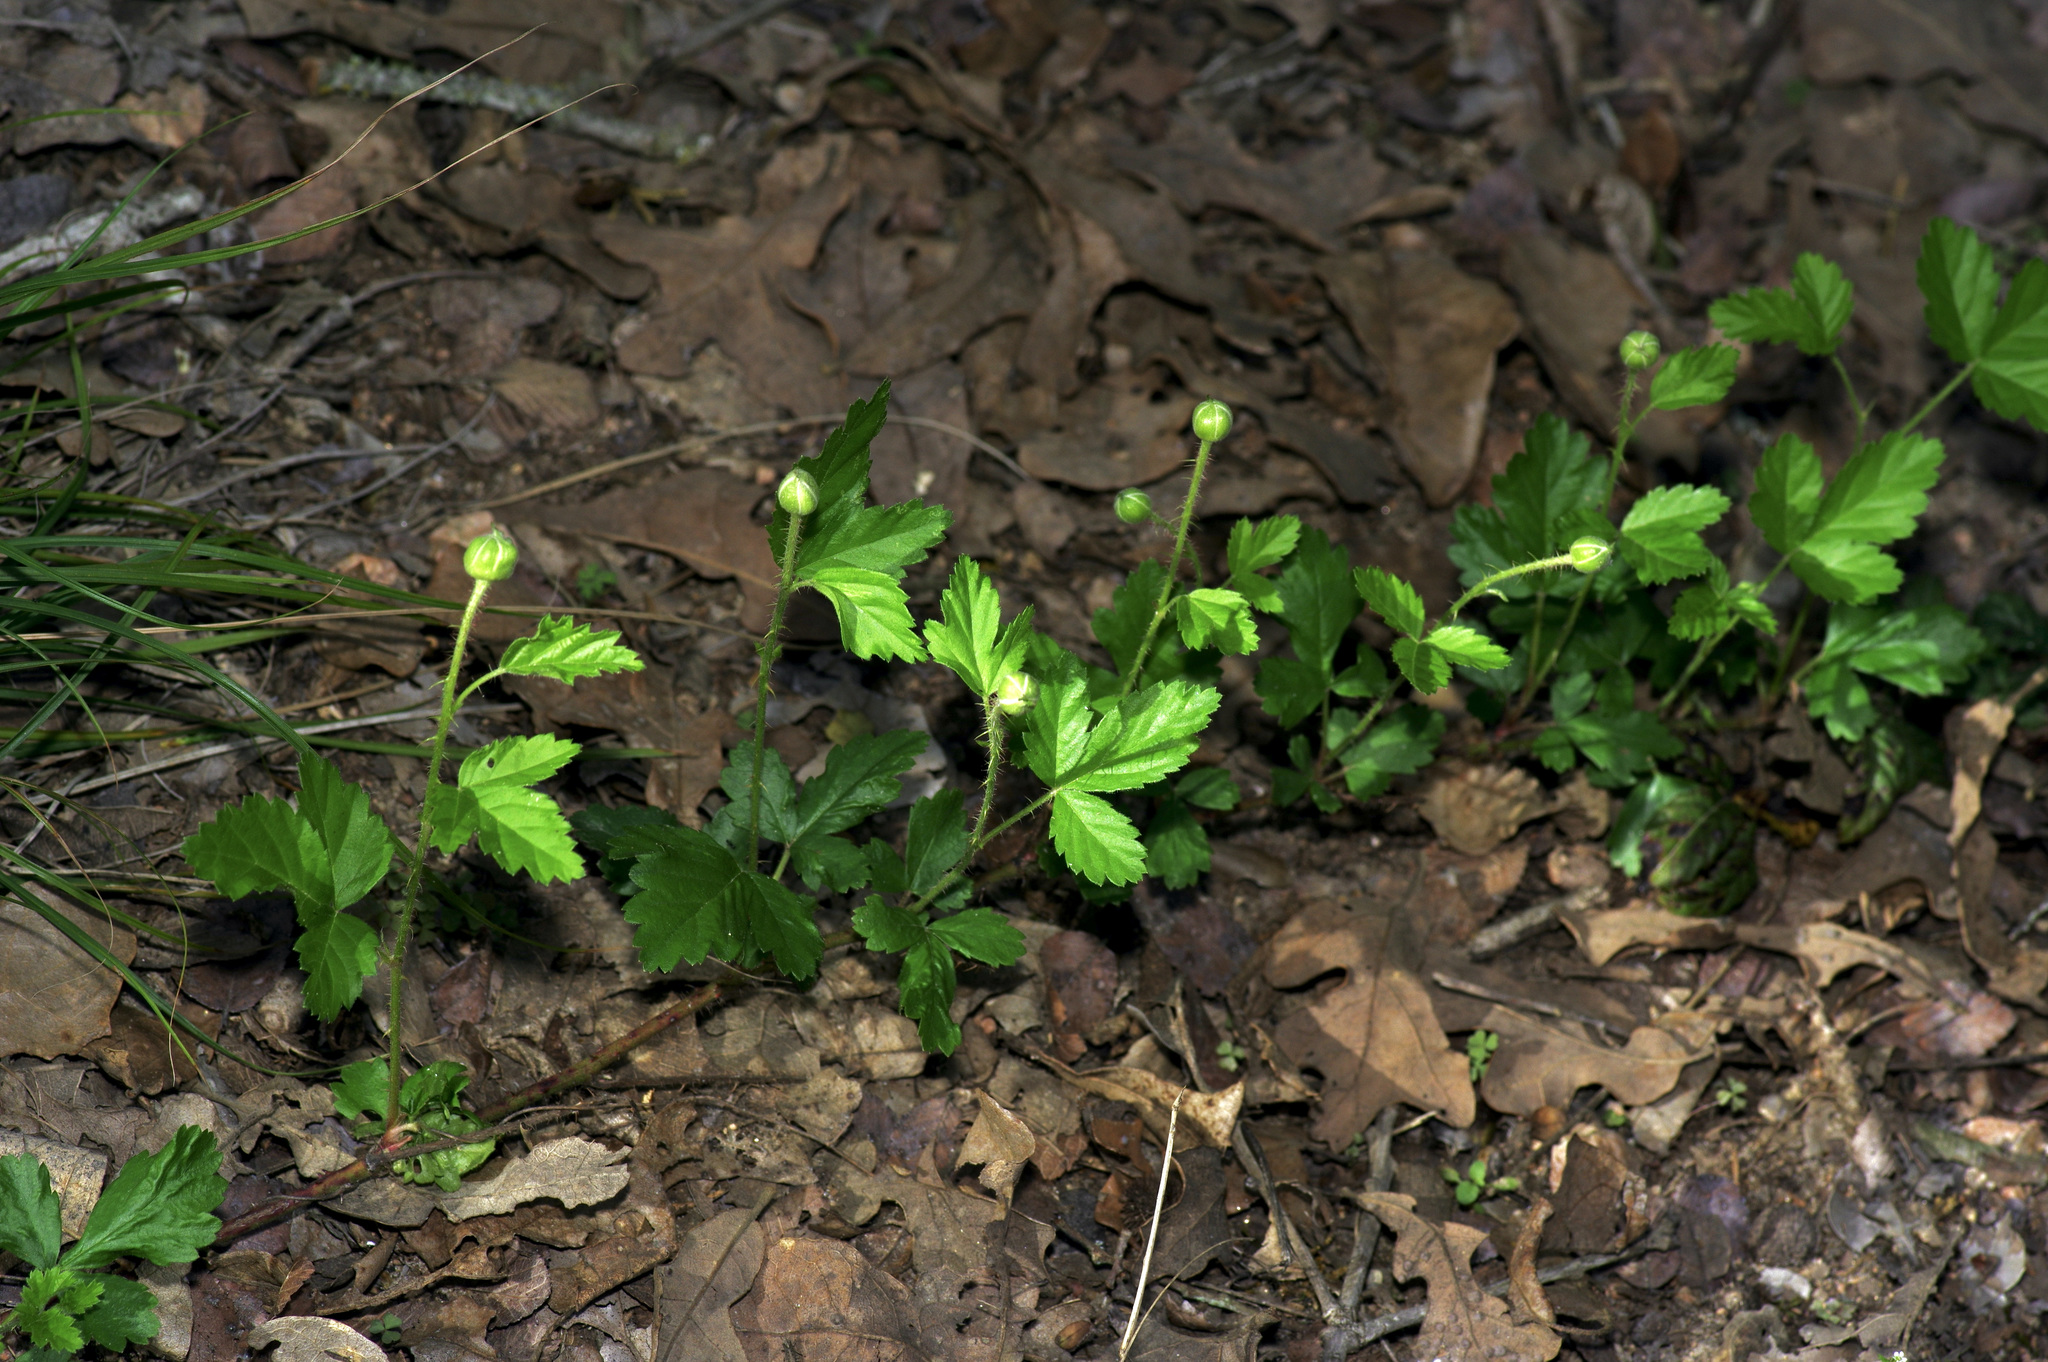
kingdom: Plantae
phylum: Tracheophyta
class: Magnoliopsida
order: Rosales
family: Rosaceae
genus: Rubus
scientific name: Rubus trivialis
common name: Southern dewberry
